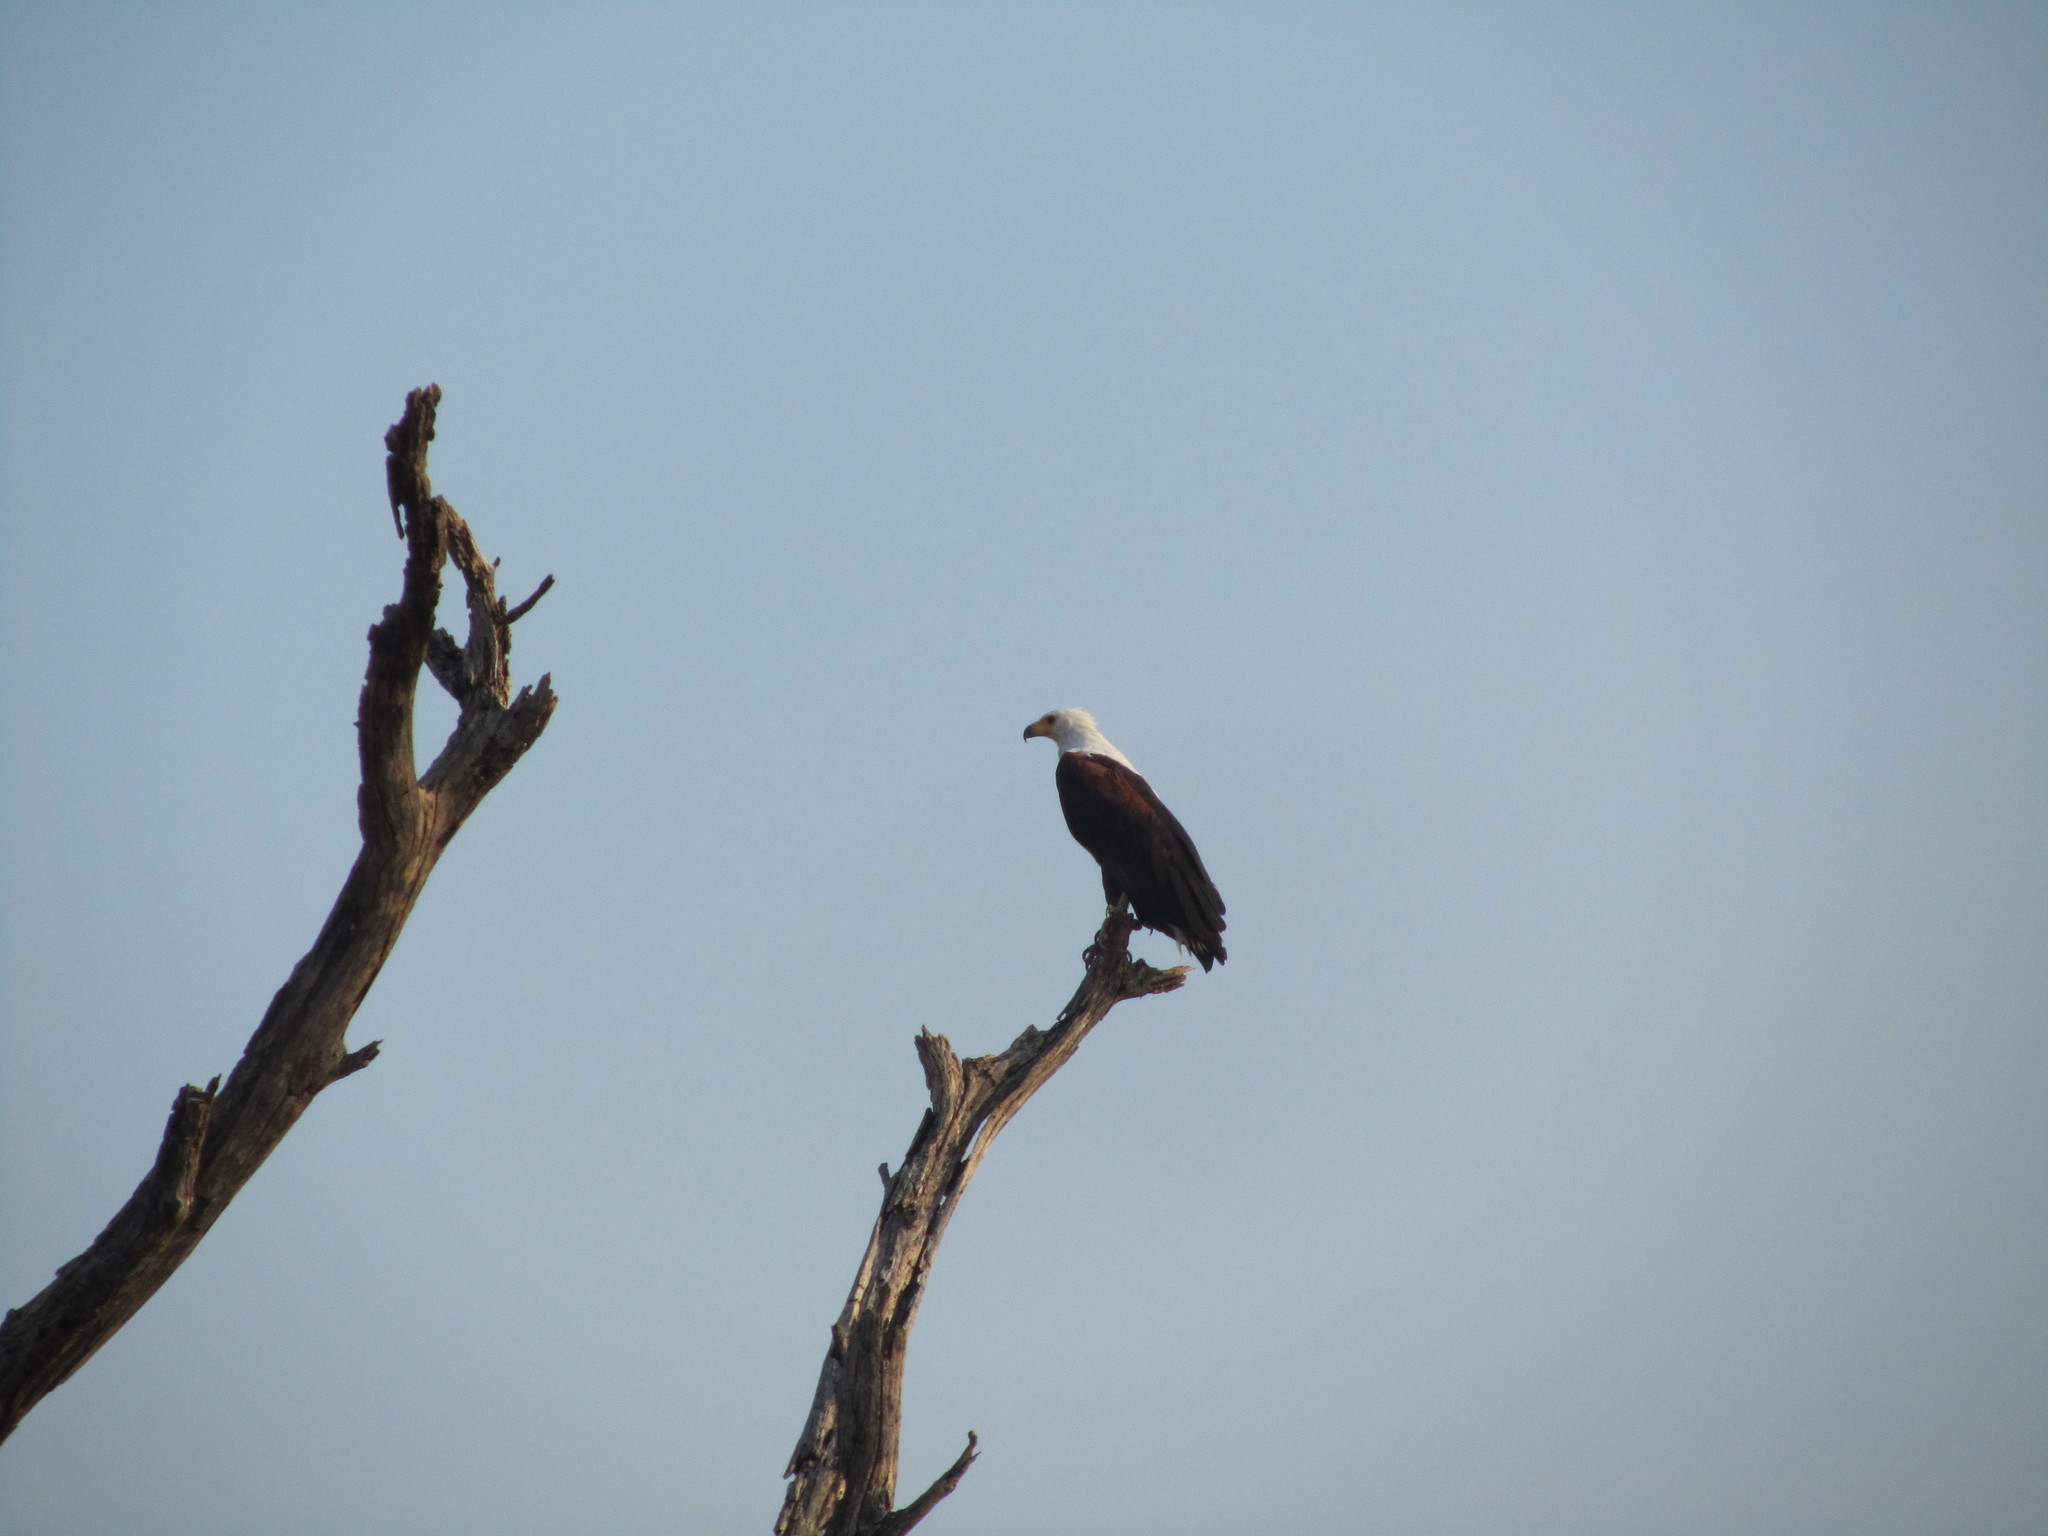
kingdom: Animalia
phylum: Chordata
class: Aves
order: Accipitriformes
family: Accipitridae
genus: Haliaeetus
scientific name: Haliaeetus vocifer
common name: African fish eagle
